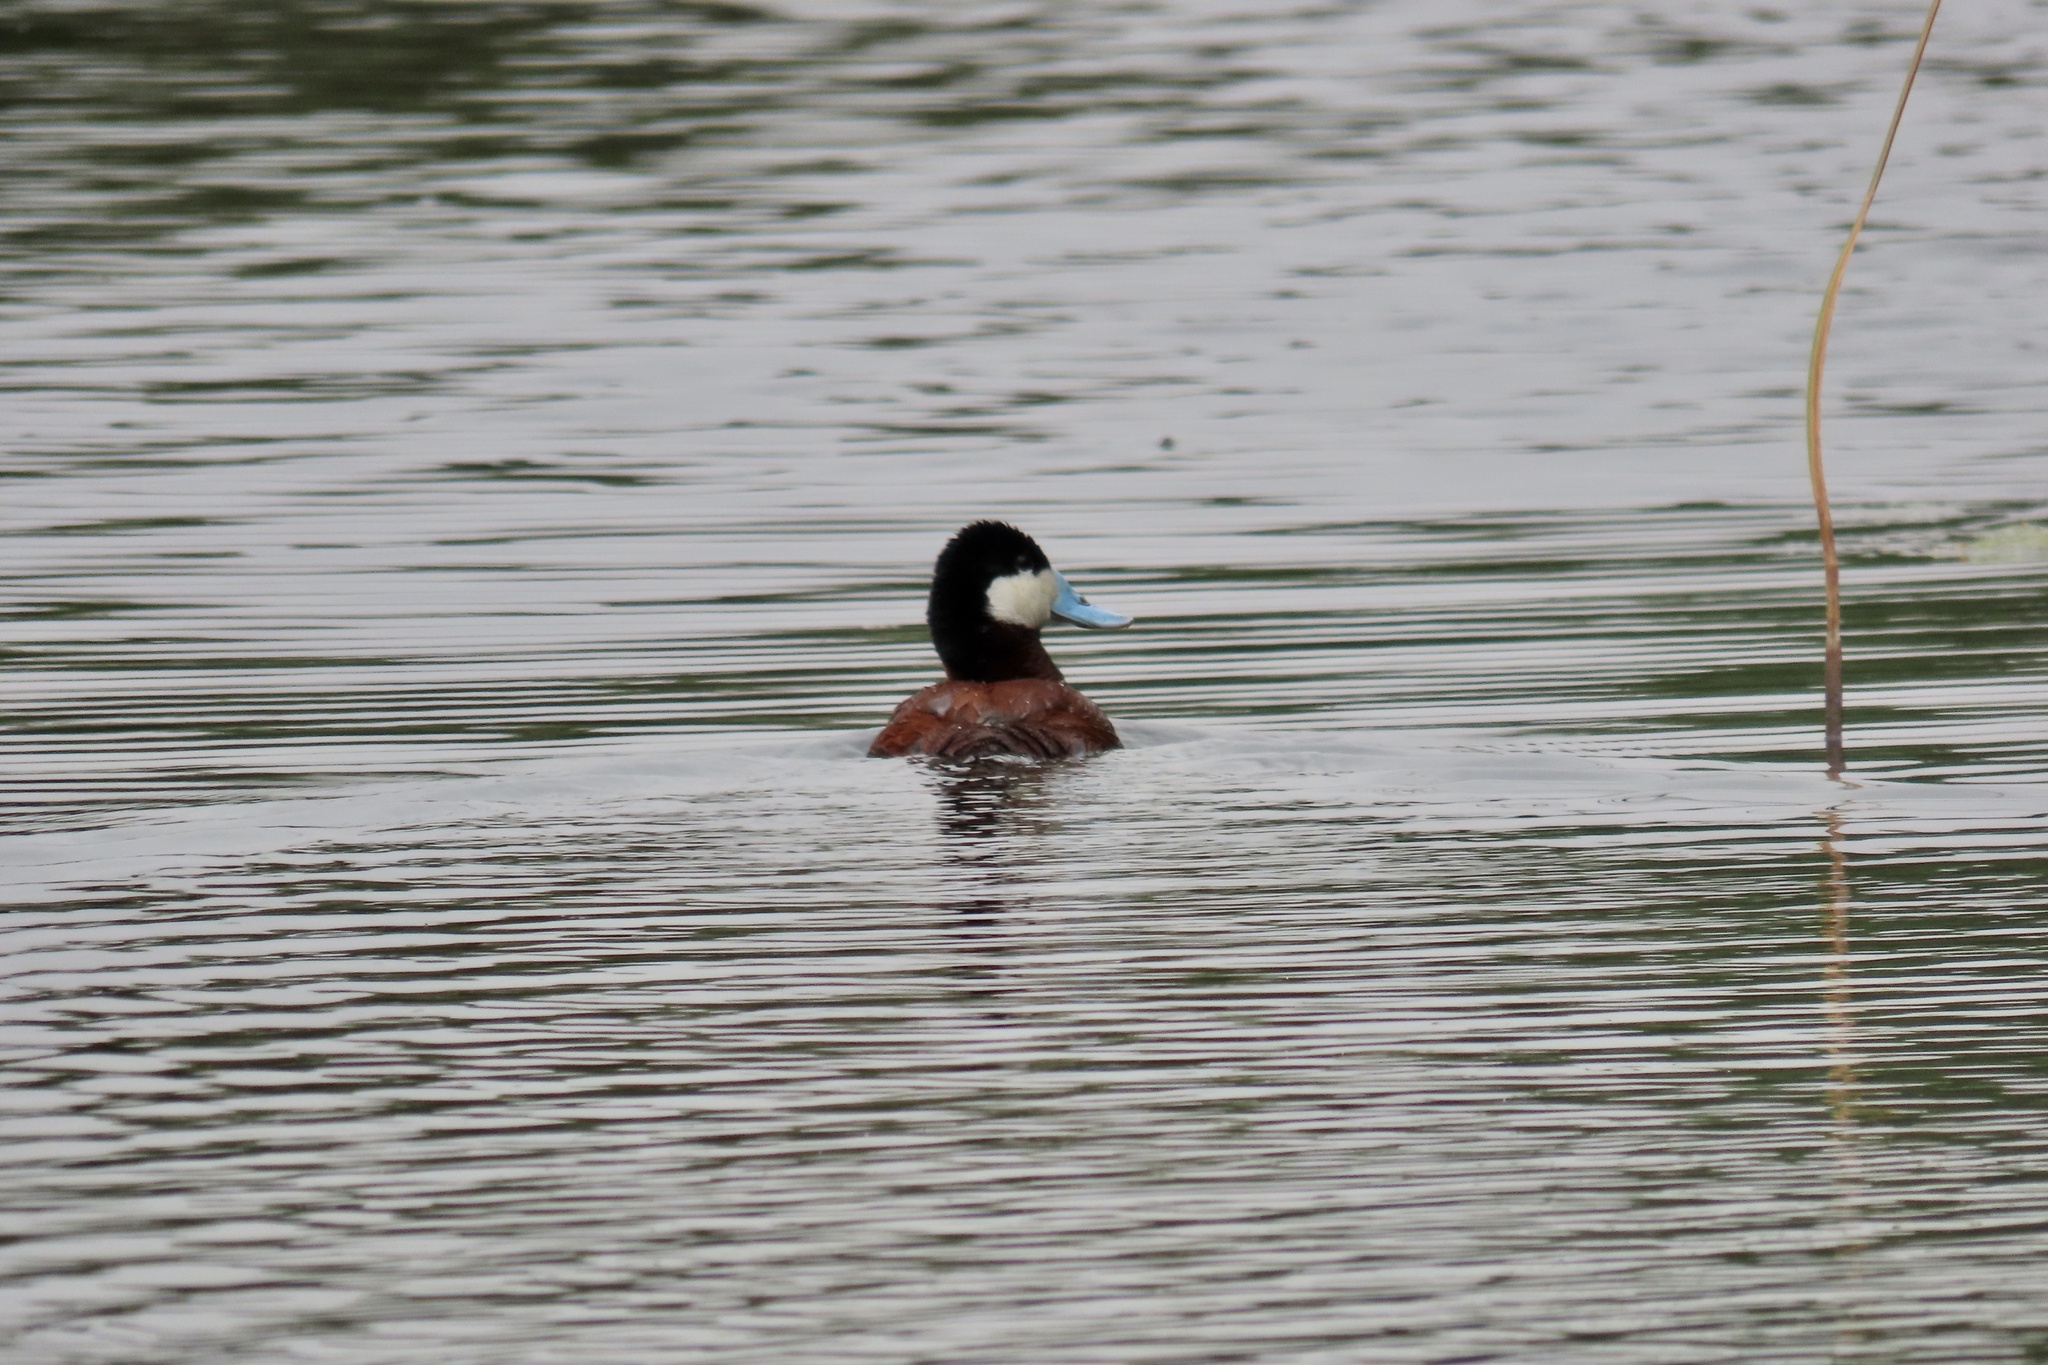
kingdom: Animalia
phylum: Chordata
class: Aves
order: Anseriformes
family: Anatidae
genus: Oxyura
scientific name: Oxyura jamaicensis
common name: Ruddy duck
